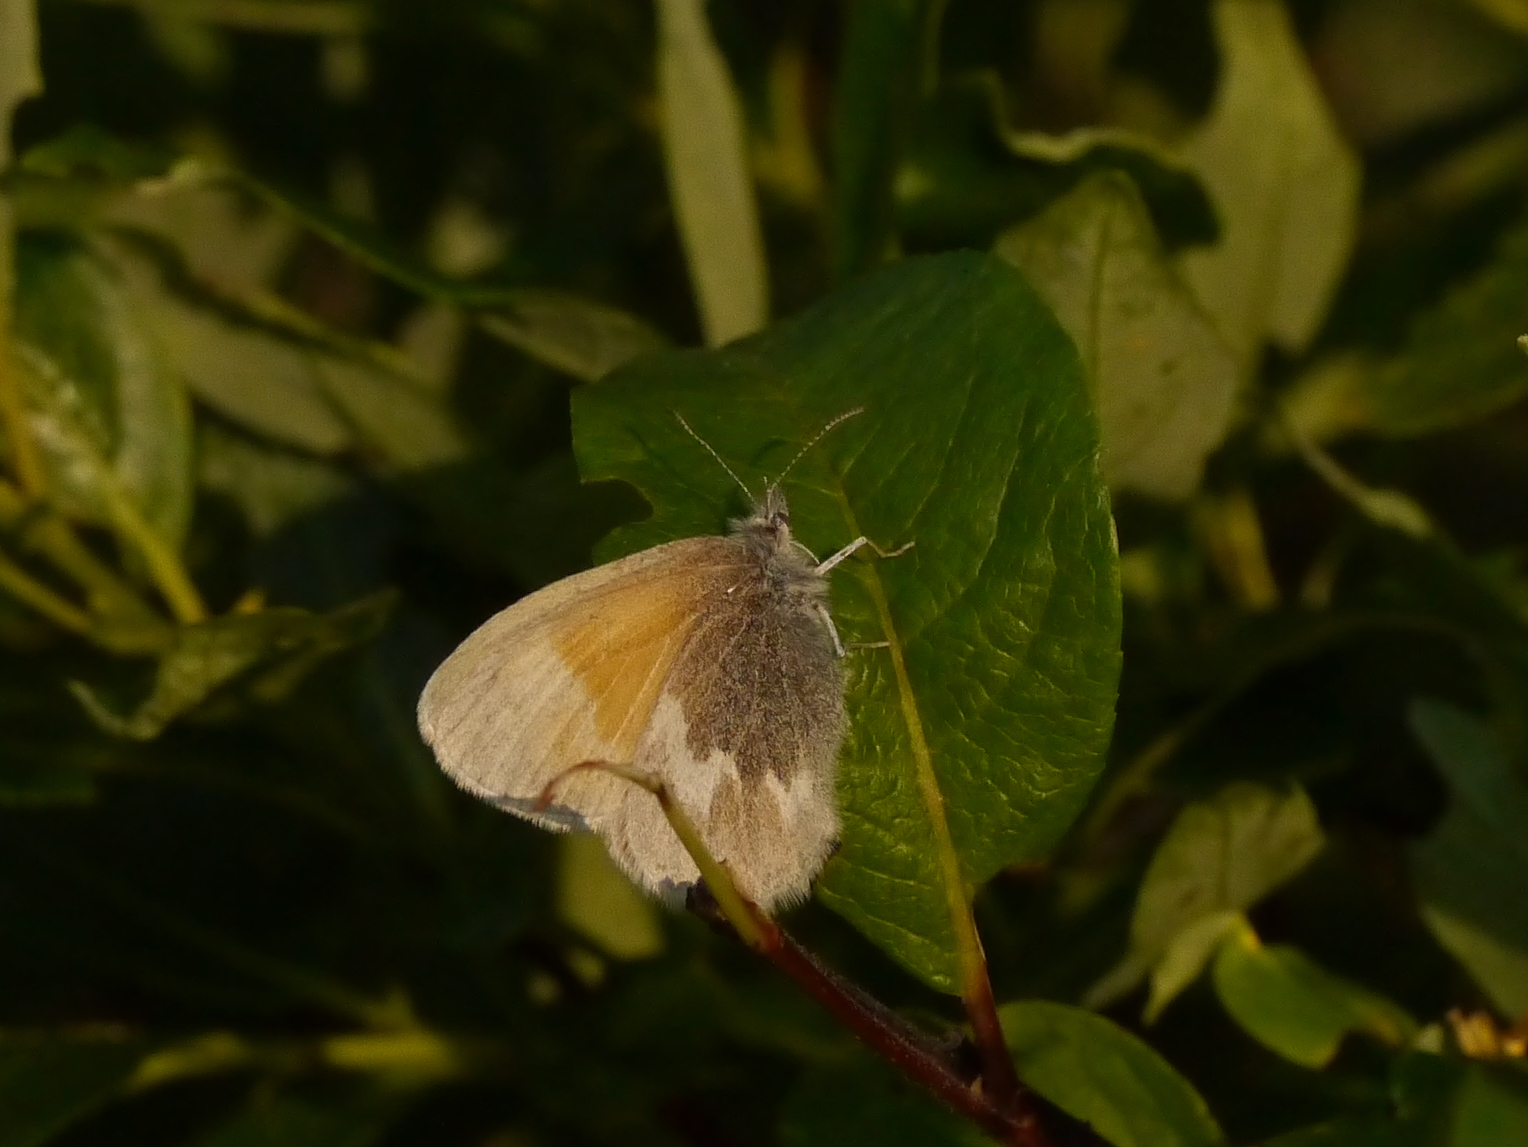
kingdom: Animalia
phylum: Arthropoda
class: Insecta
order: Lepidoptera
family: Nymphalidae
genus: Coenonympha
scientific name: Coenonympha tullia
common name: Large heath
